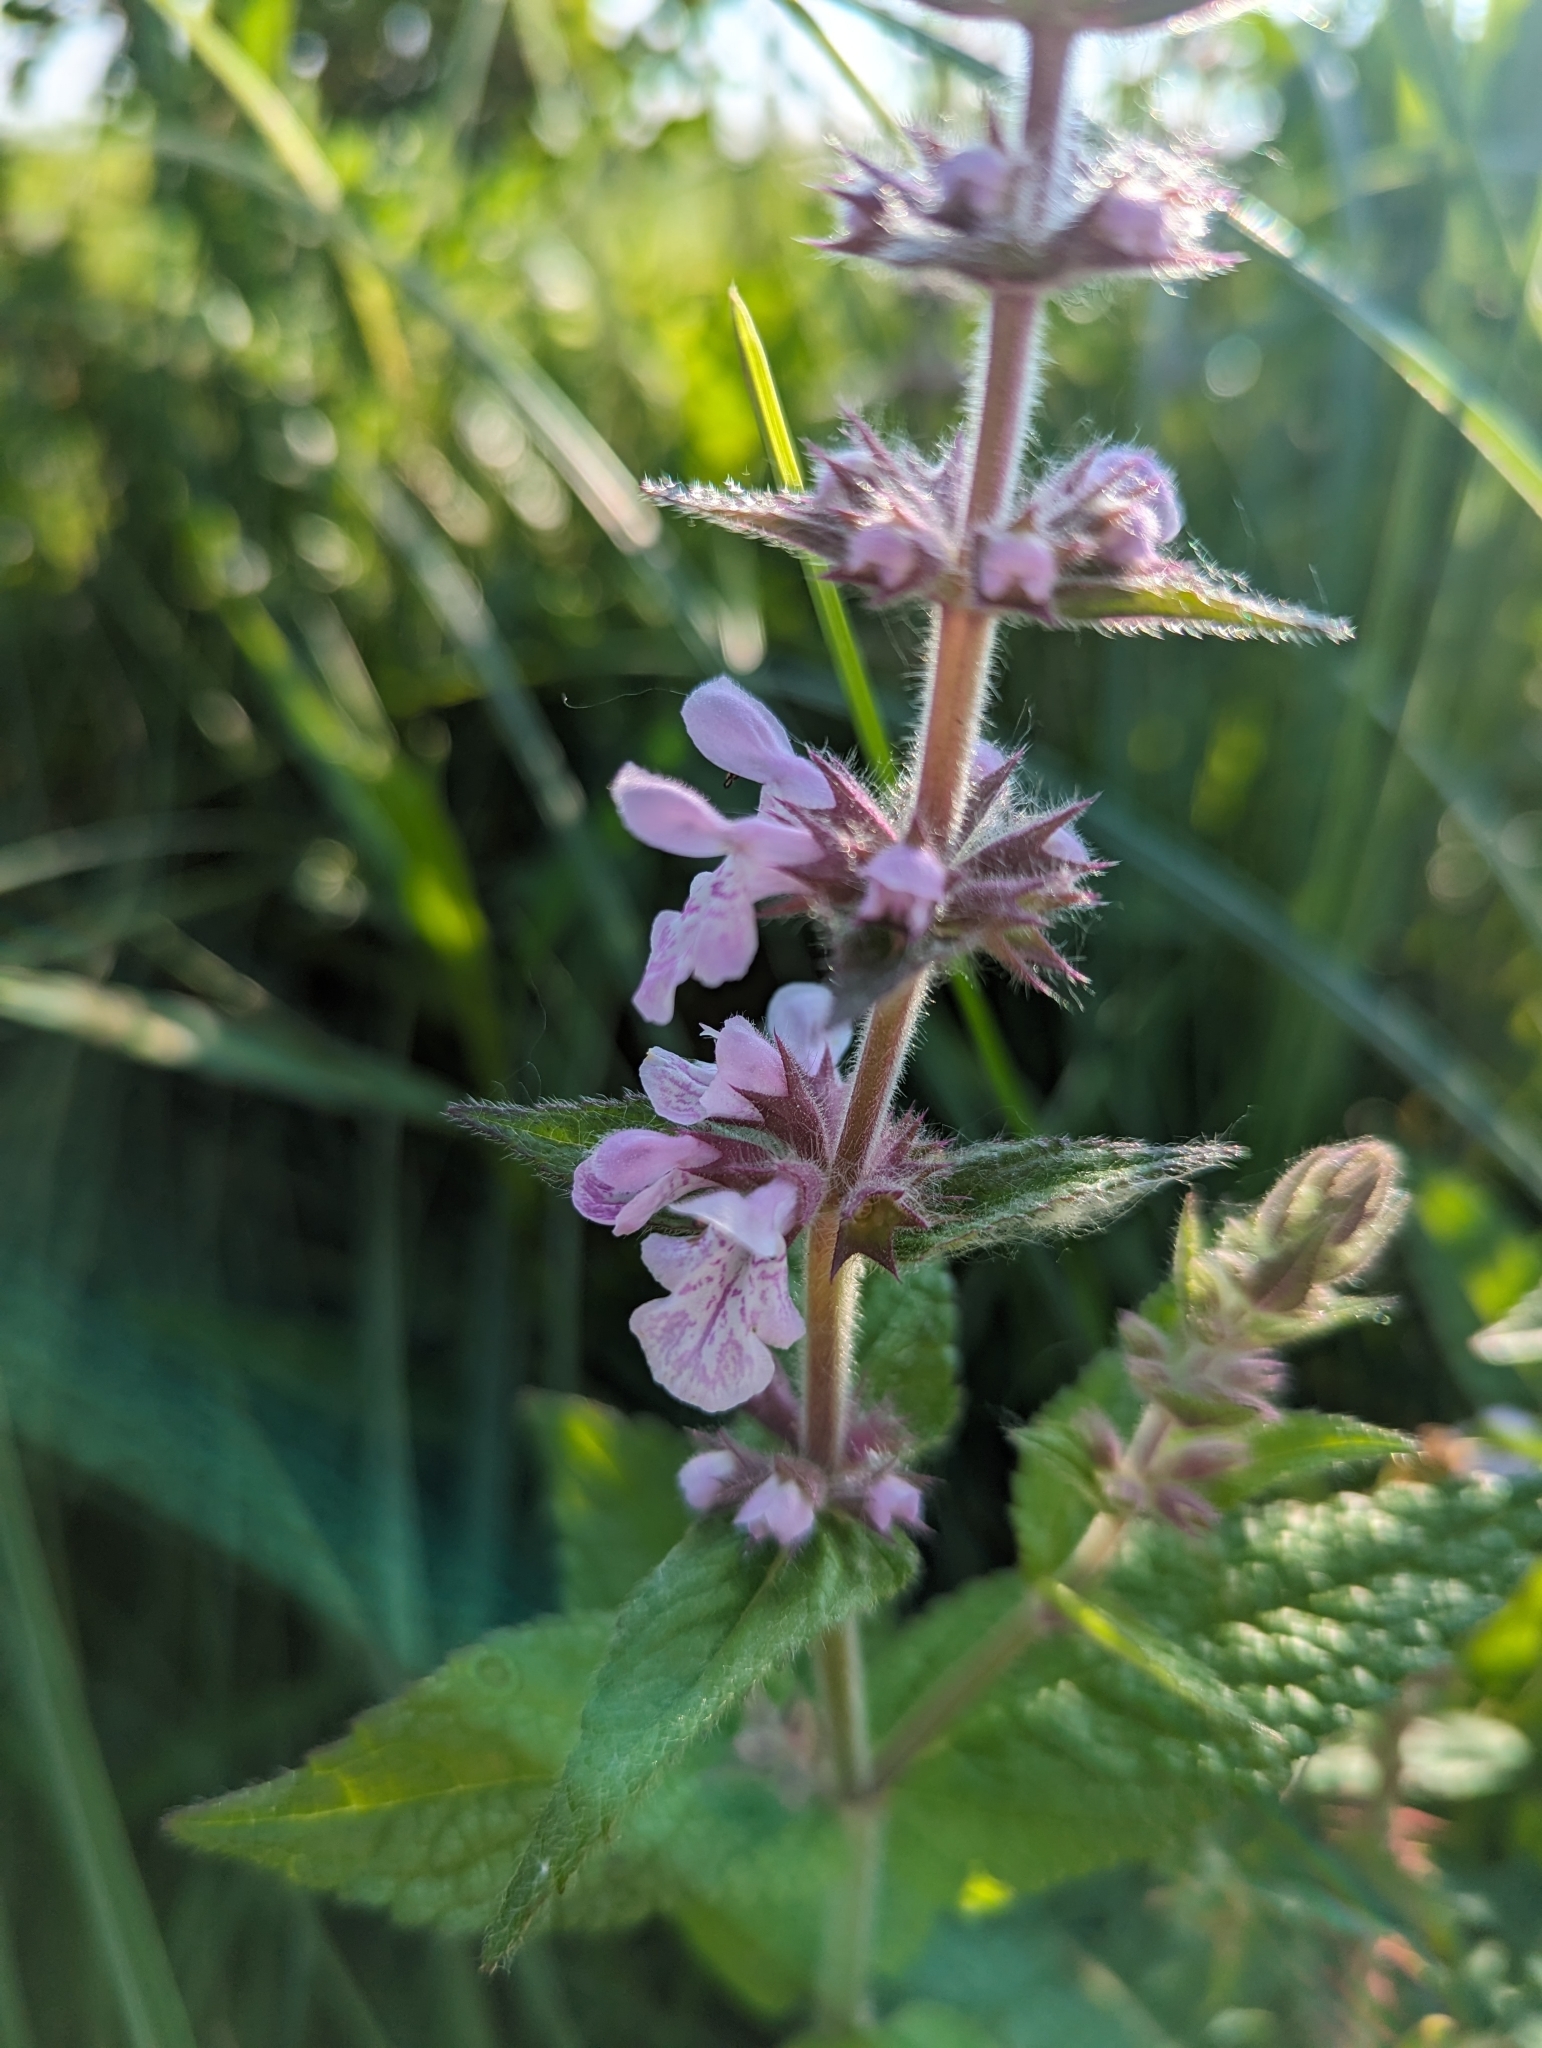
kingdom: Plantae
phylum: Tracheophyta
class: Magnoliopsida
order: Lamiales
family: Lamiaceae
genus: Stachys
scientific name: Stachys pilosa
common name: Hairy hedge-nettle
